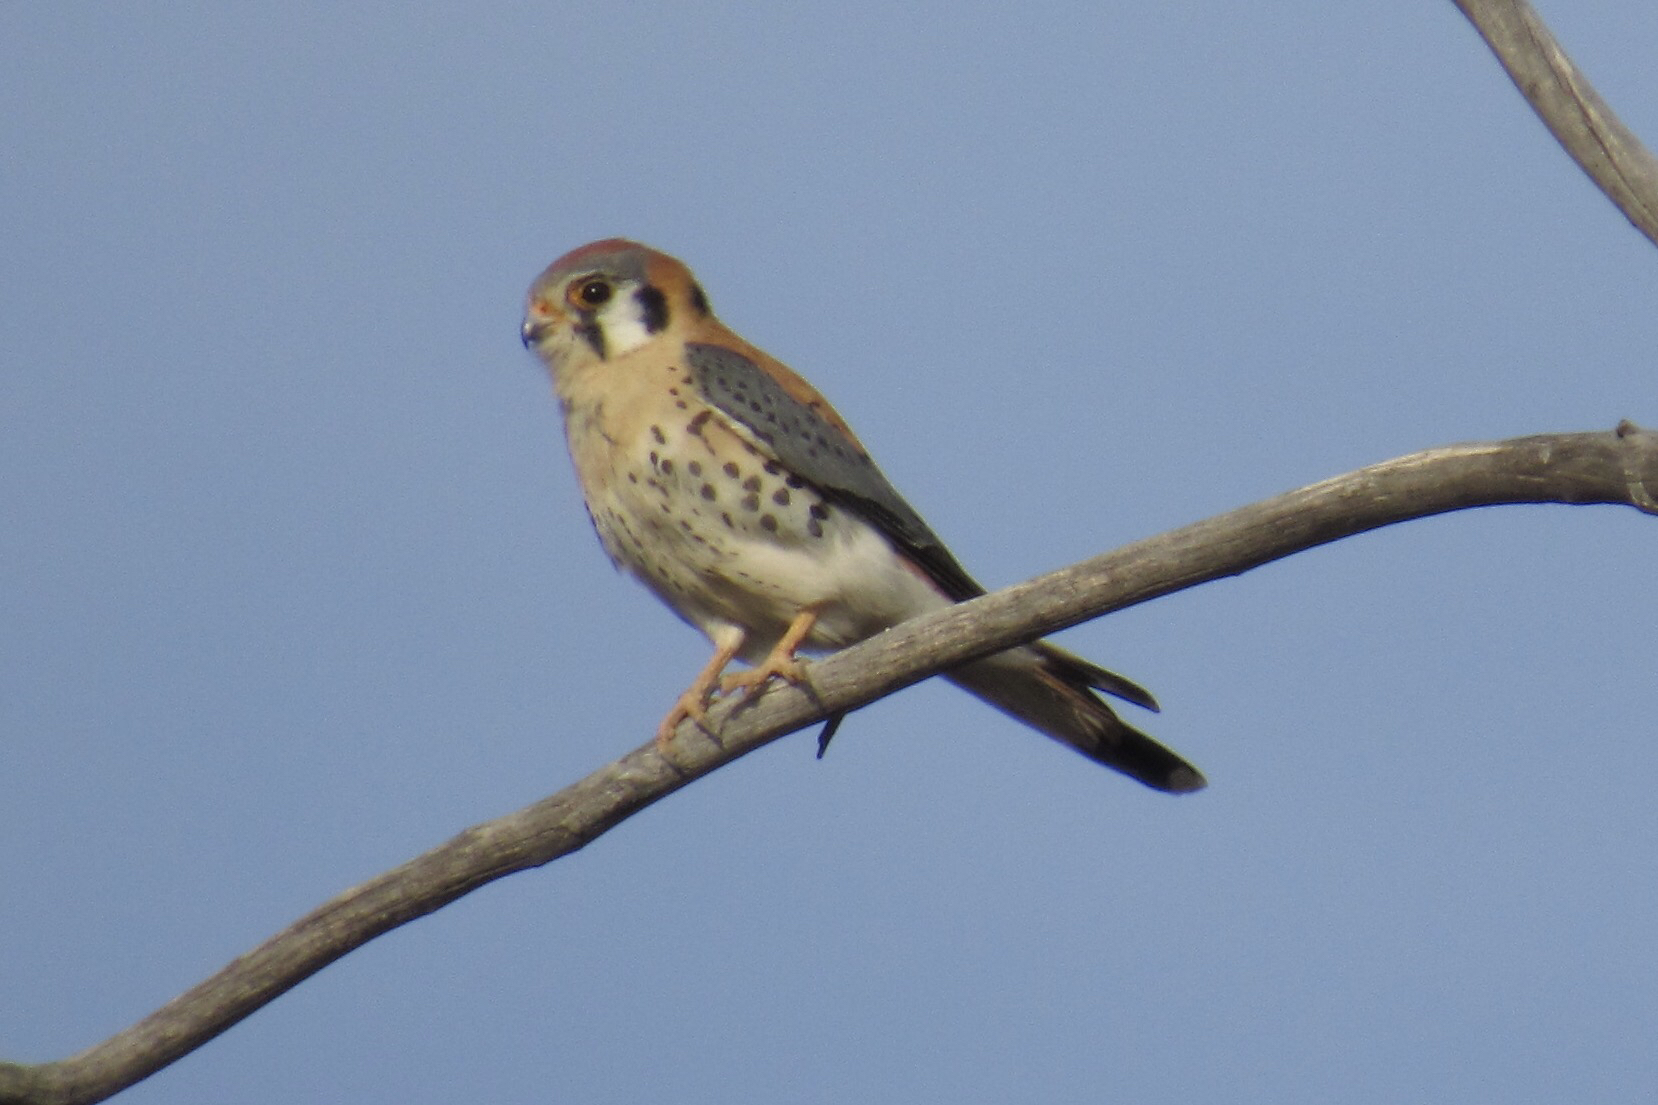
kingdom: Animalia
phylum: Chordata
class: Aves
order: Falconiformes
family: Falconidae
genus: Falco
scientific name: Falco sparverius
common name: American kestrel
